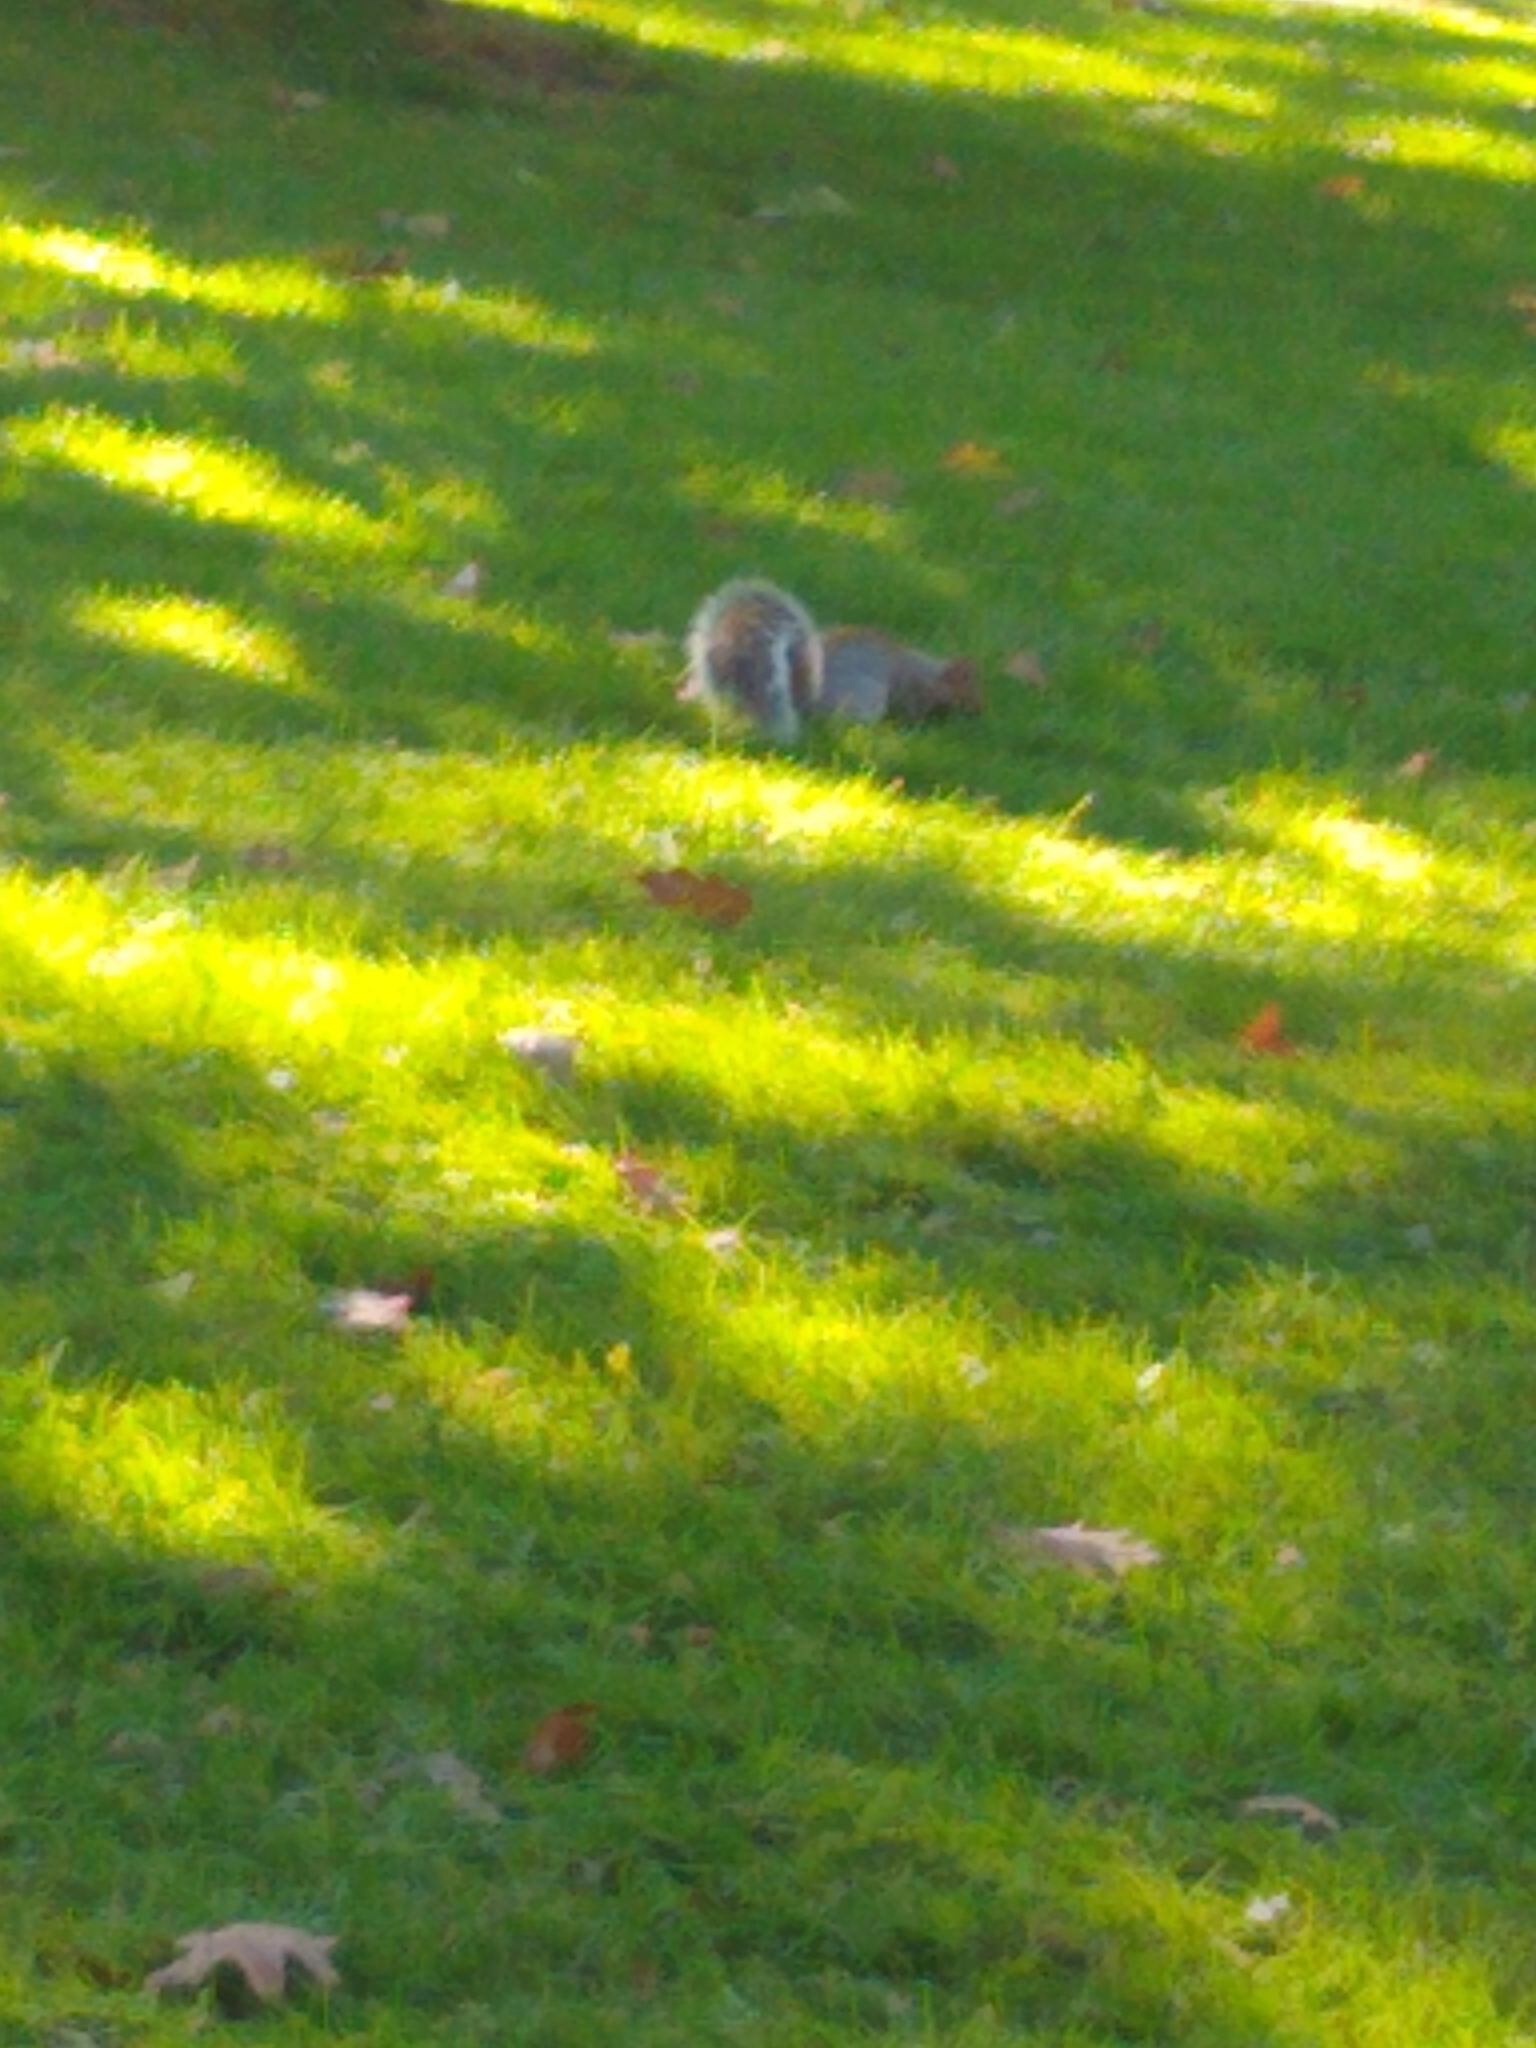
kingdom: Animalia
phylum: Chordata
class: Mammalia
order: Rodentia
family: Sciuridae
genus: Sciurus
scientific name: Sciurus carolinensis
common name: Eastern gray squirrel
